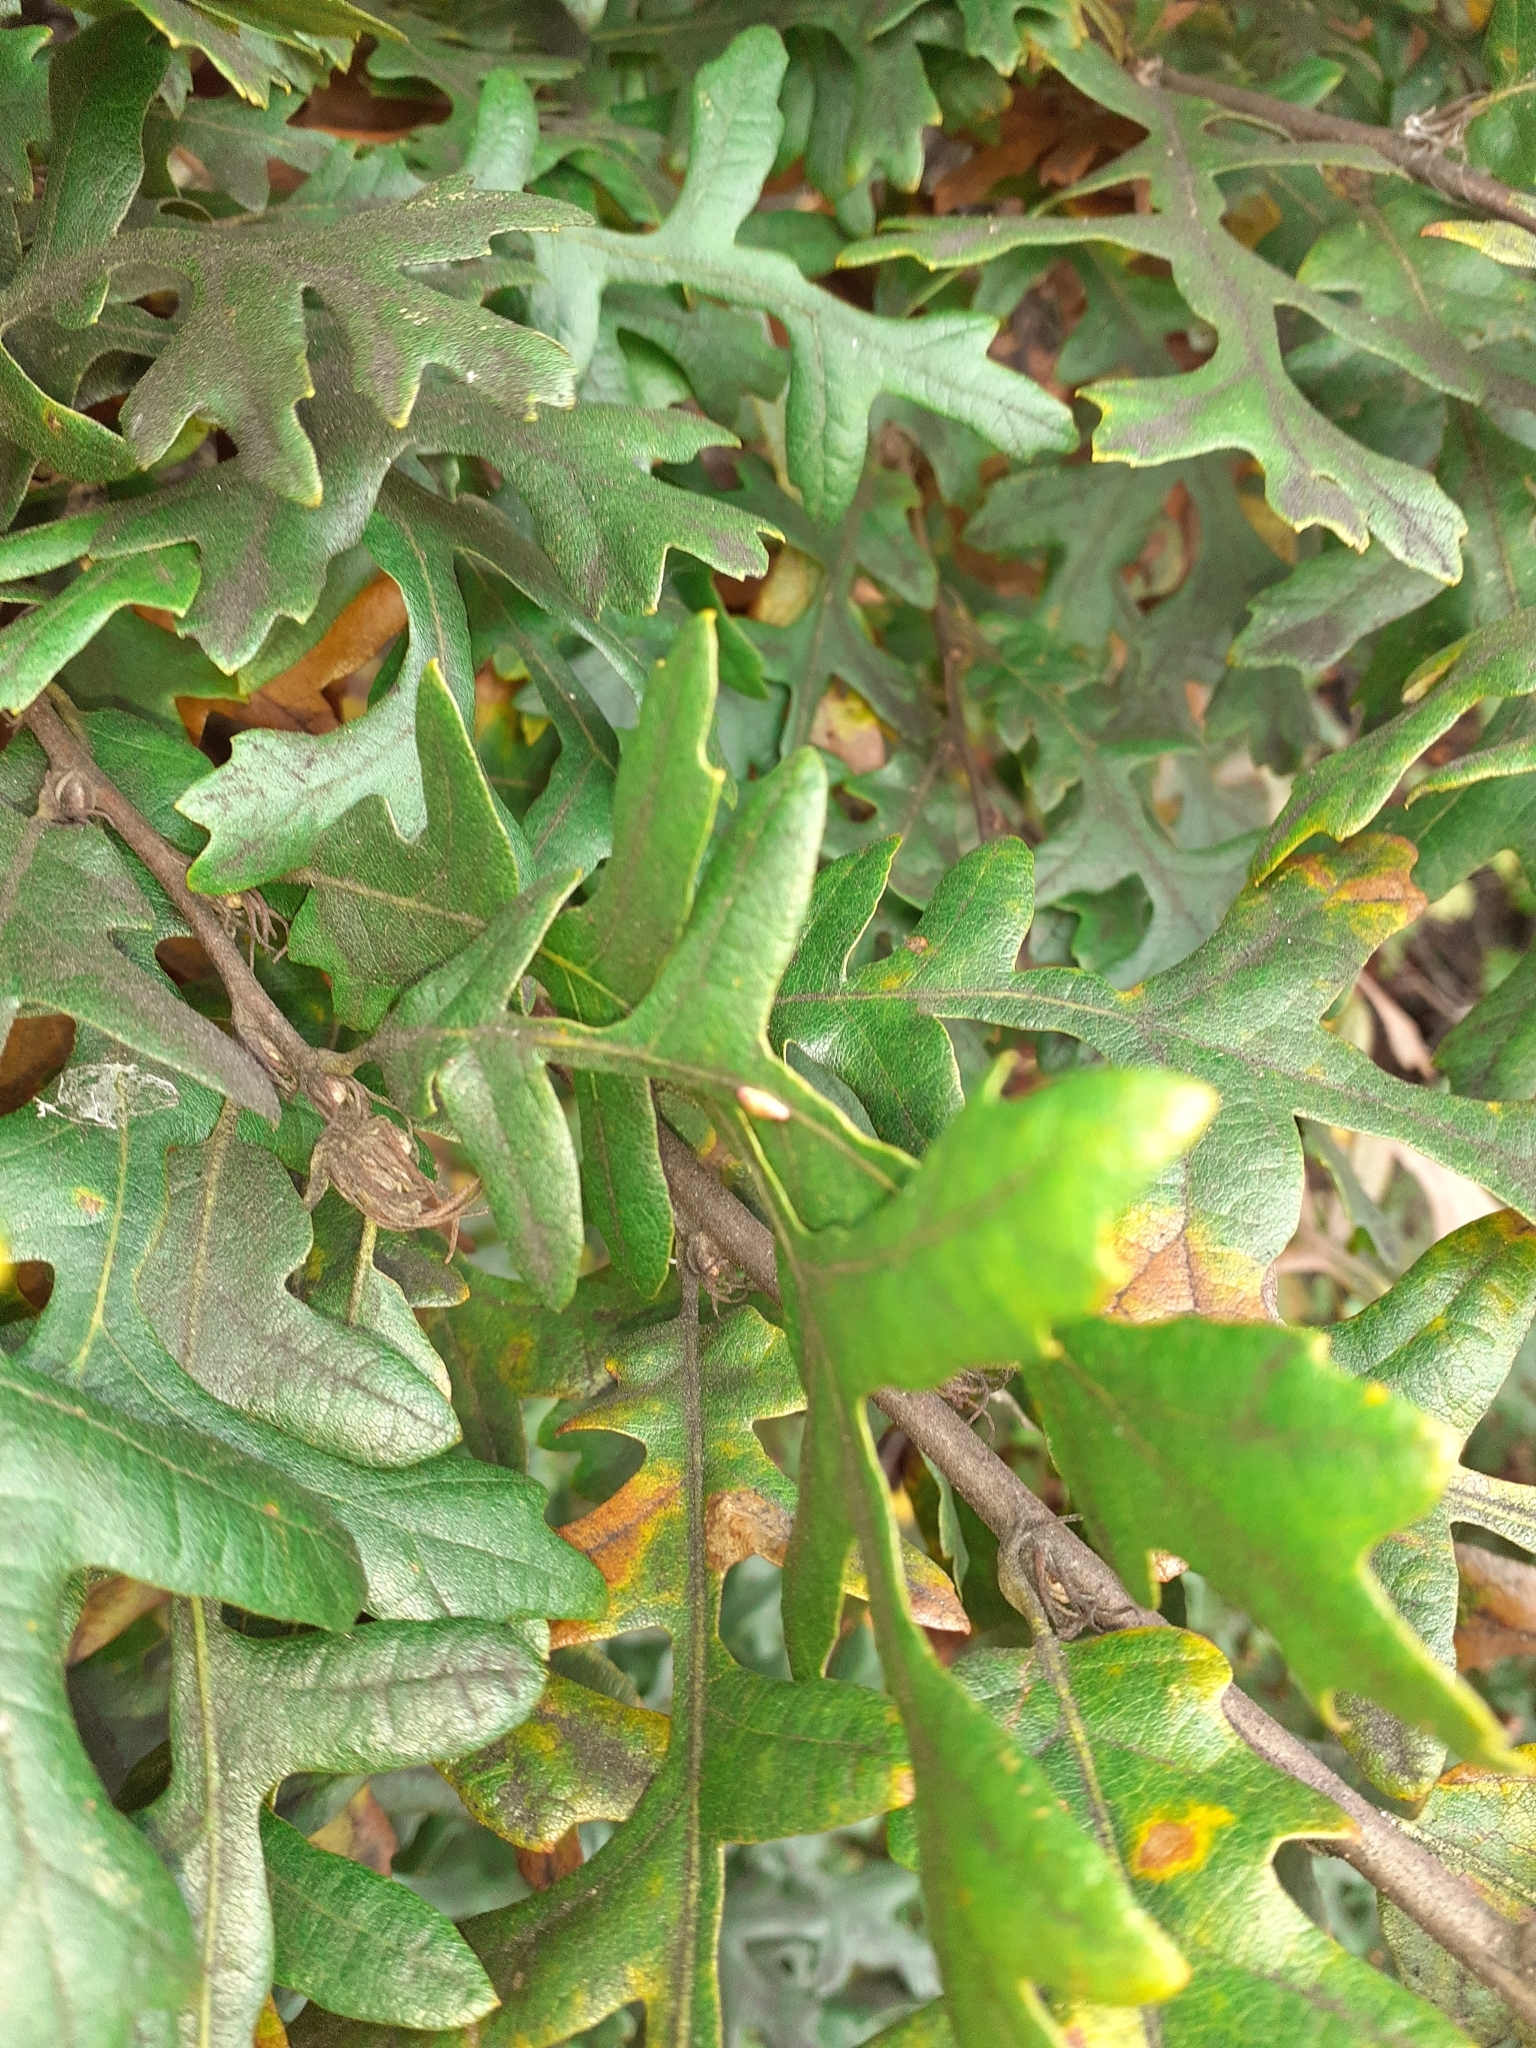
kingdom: Animalia
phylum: Arthropoda
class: Insecta
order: Hymenoptera
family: Cynipidae
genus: Neuroterus
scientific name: Neuroterus saliens
